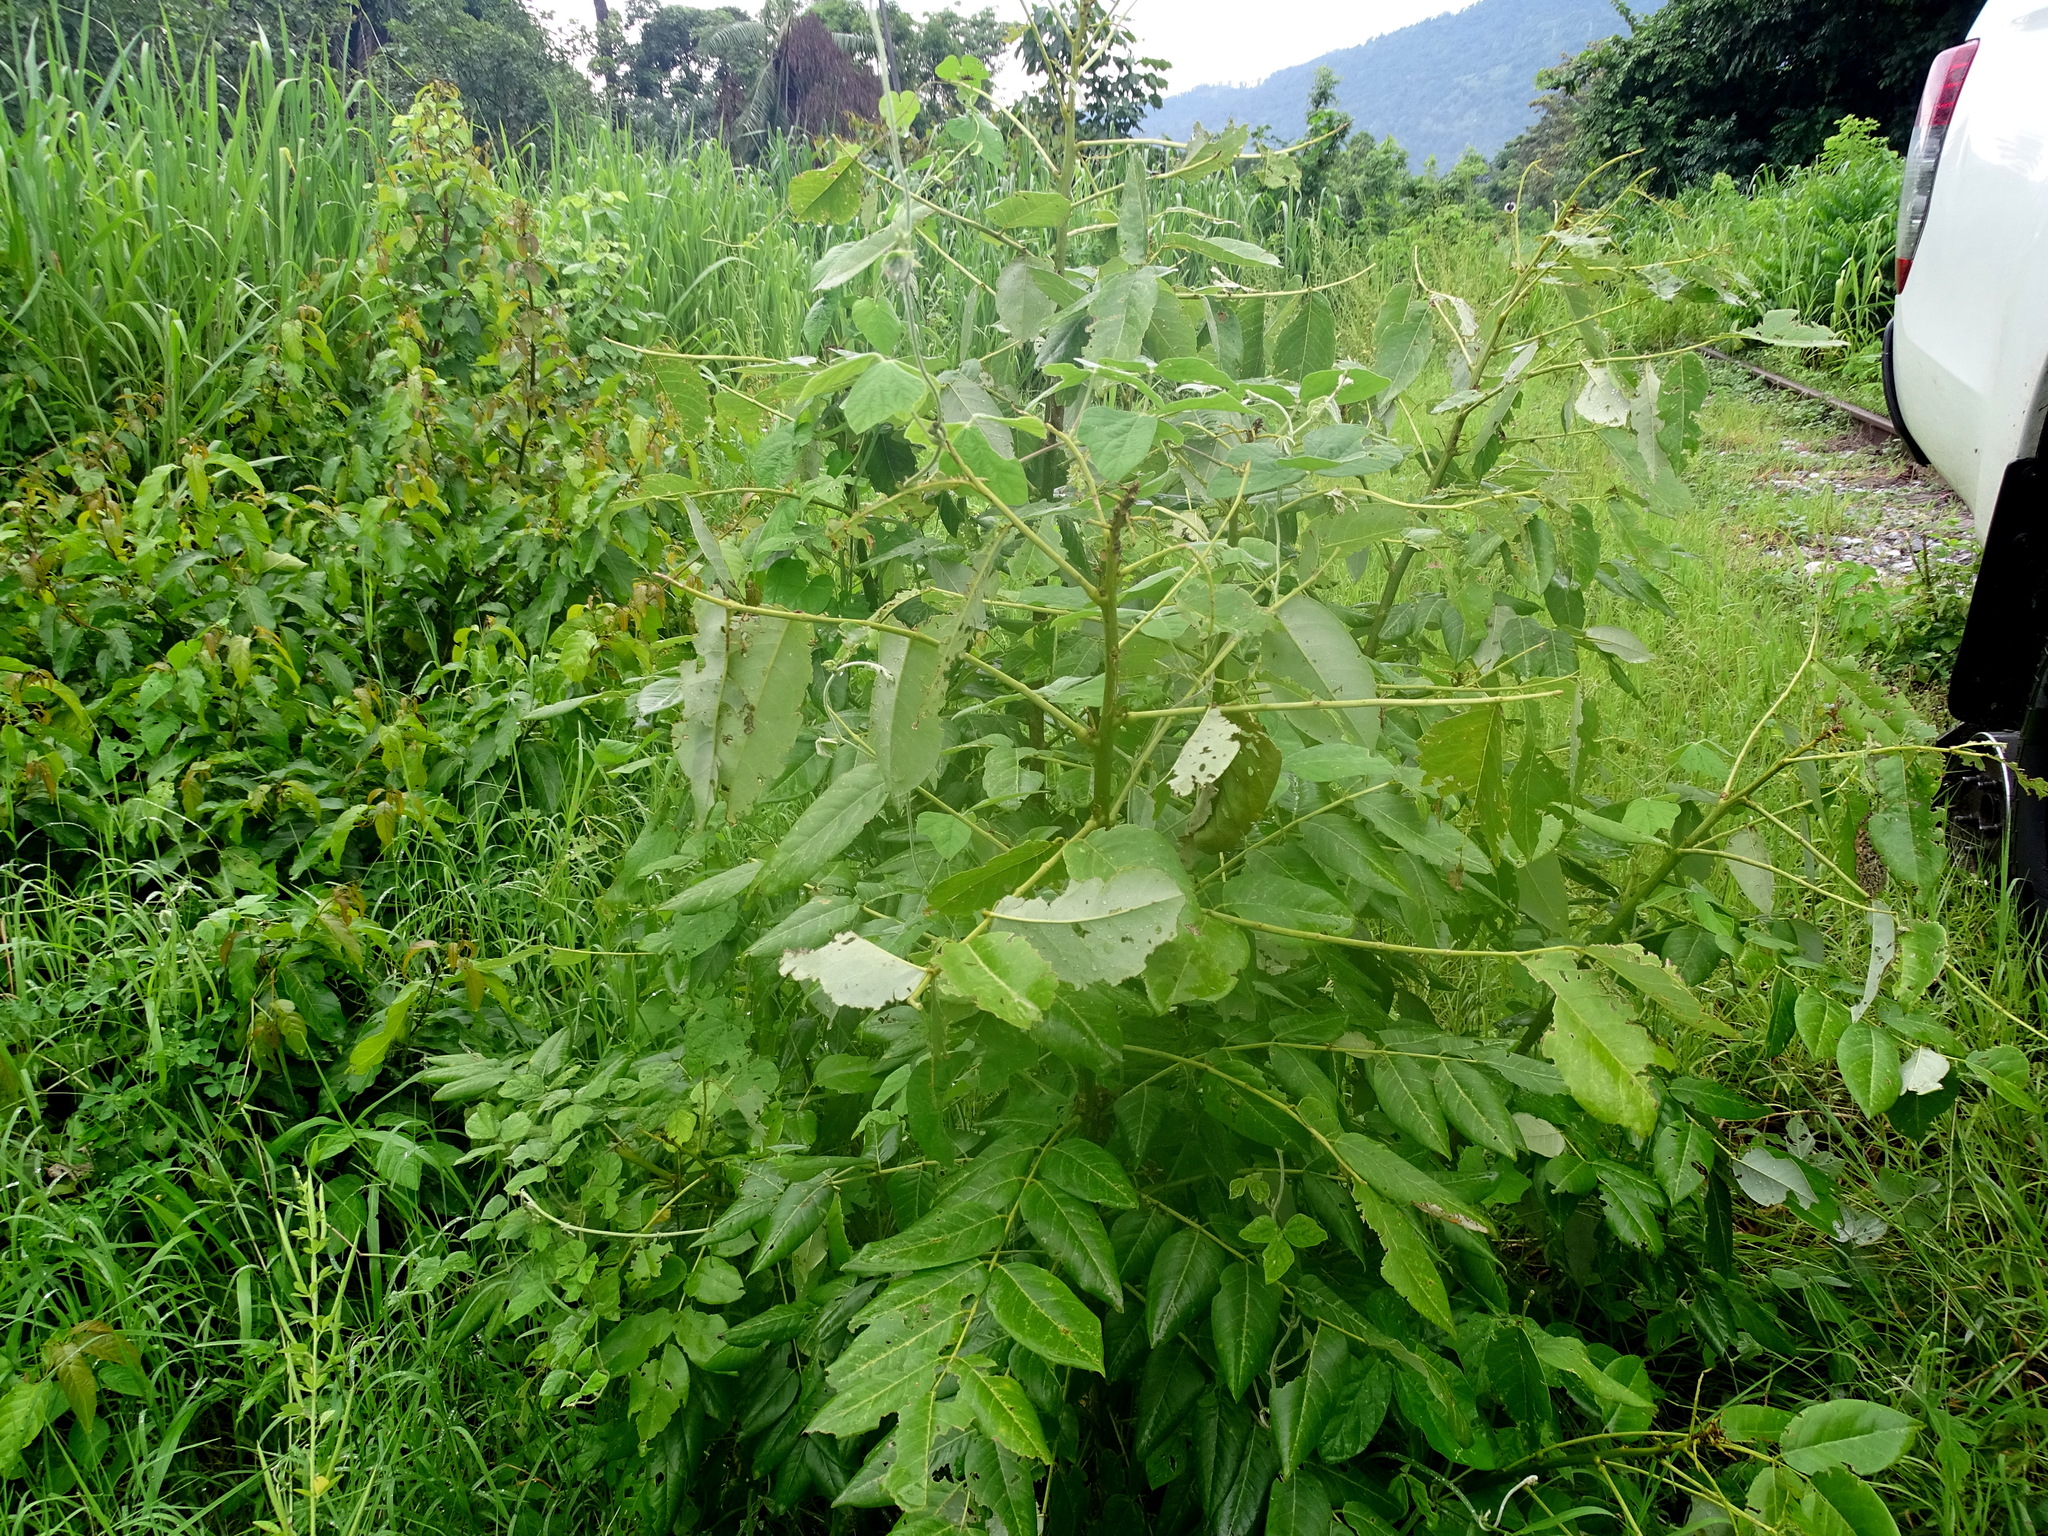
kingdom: Plantae
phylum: Tracheophyta
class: Magnoliopsida
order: Fabales
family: Fabaceae
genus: Piscidia
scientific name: Piscidia carthagenensis
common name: Stinkwood
